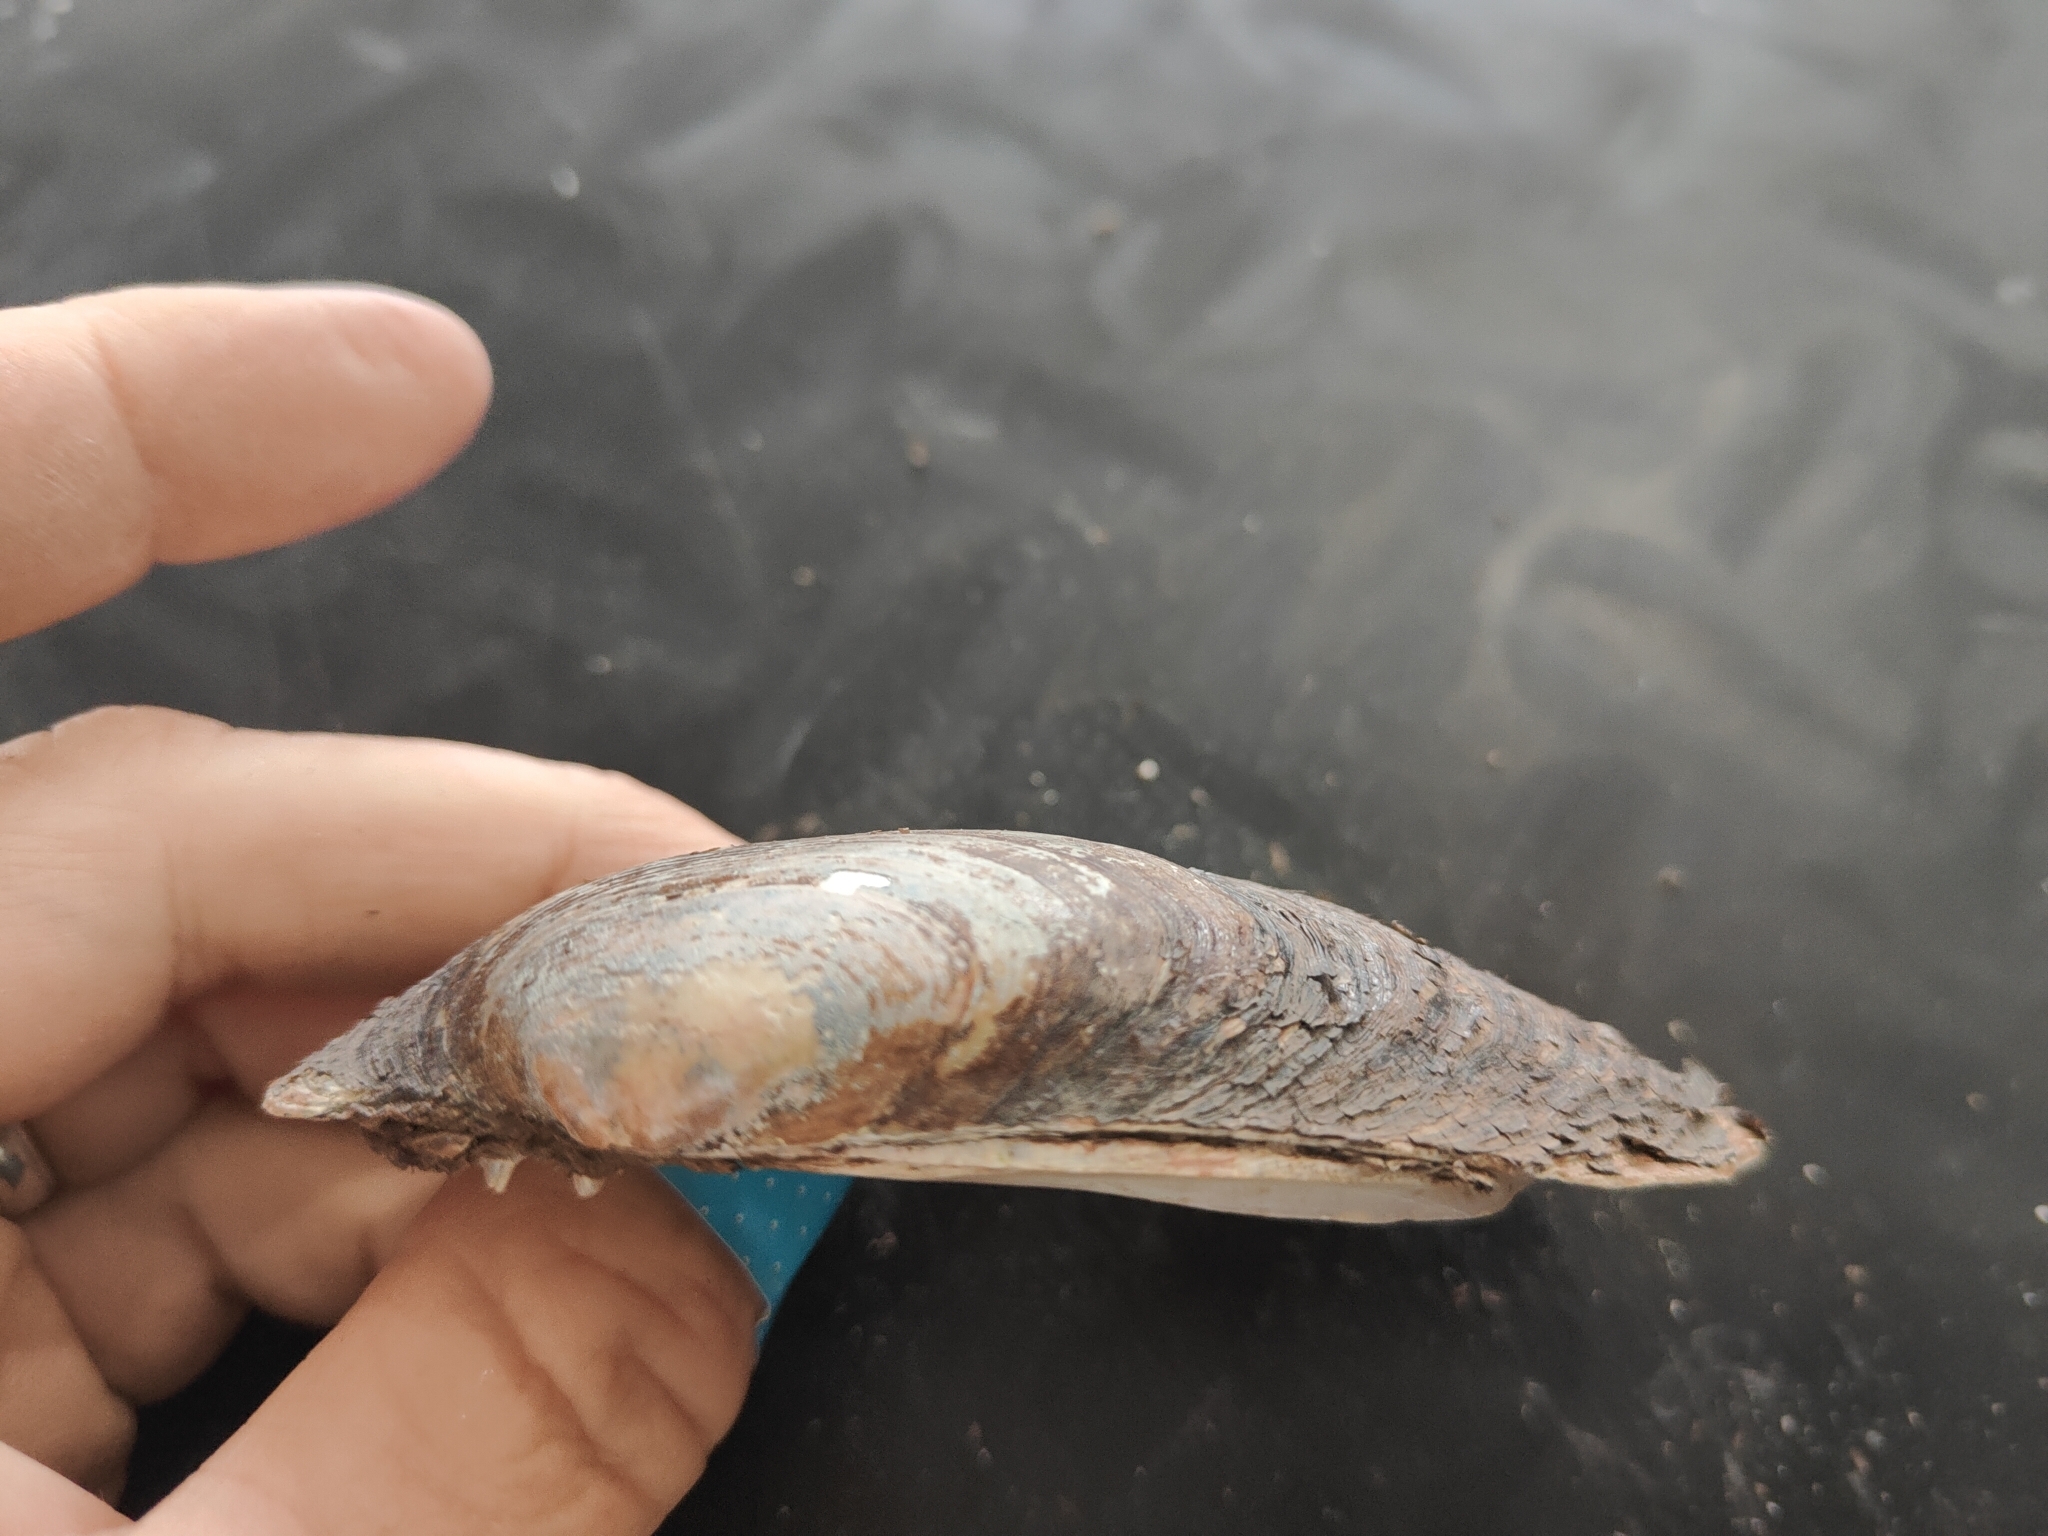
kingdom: Animalia
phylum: Mollusca
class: Bivalvia
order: Unionida
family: Unionidae
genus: Lampsilis
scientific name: Lampsilis siliquoidea
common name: Fatmucket
